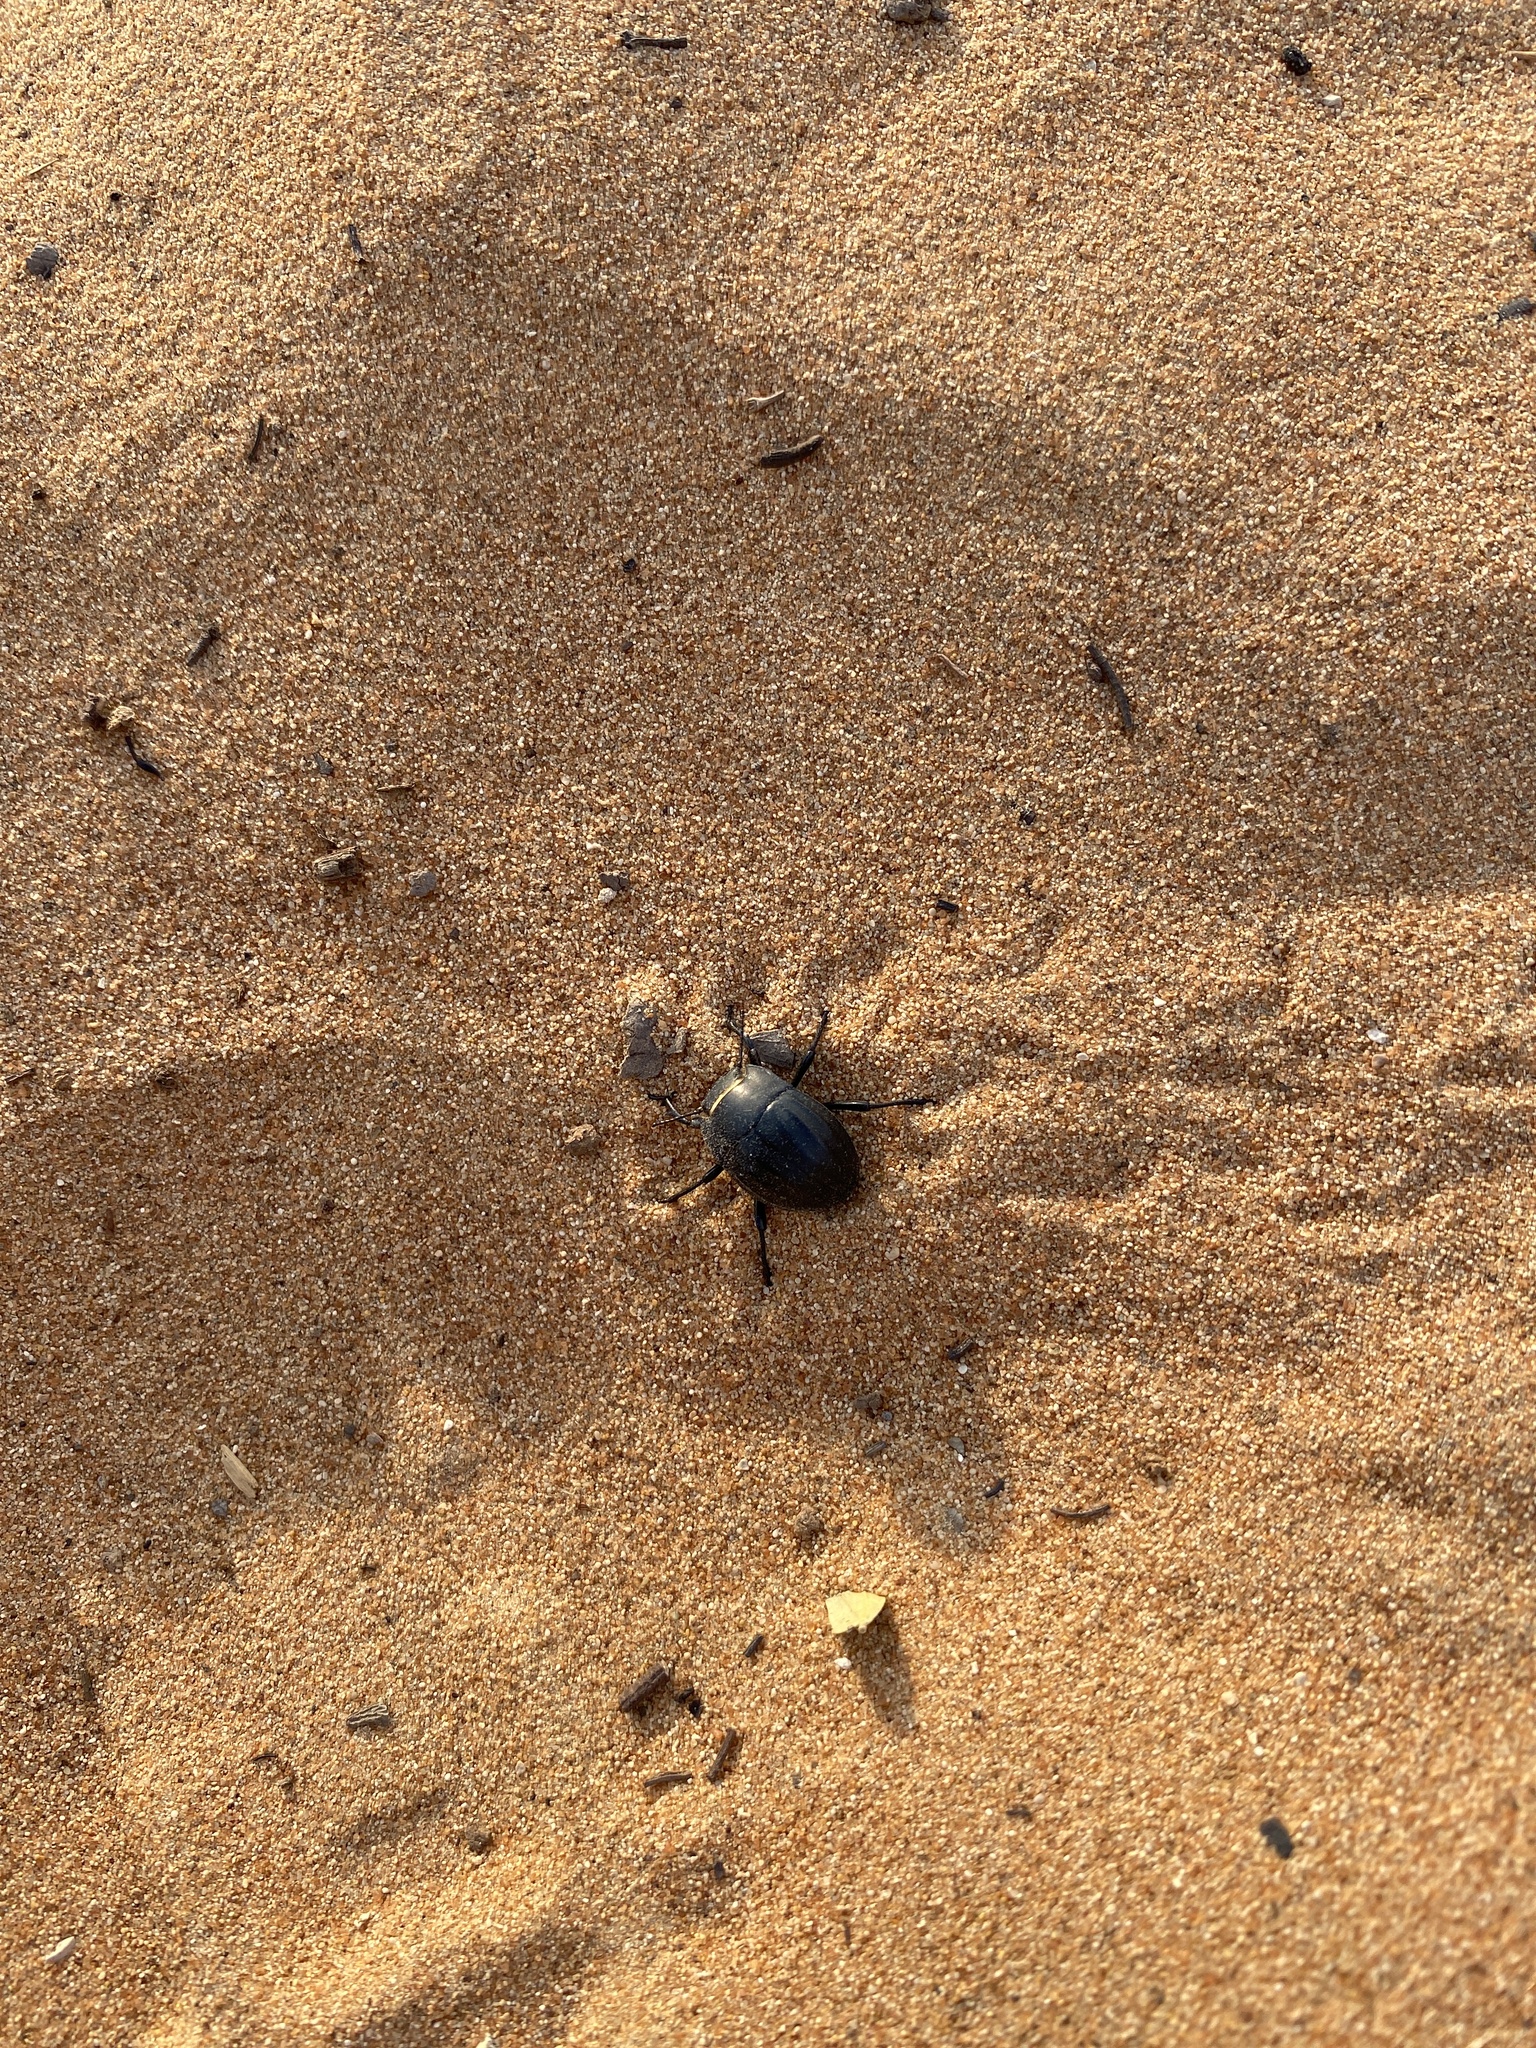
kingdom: Animalia
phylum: Arthropoda
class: Insecta
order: Coleoptera
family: Tenebrionidae
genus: Erodius
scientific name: Erodius
